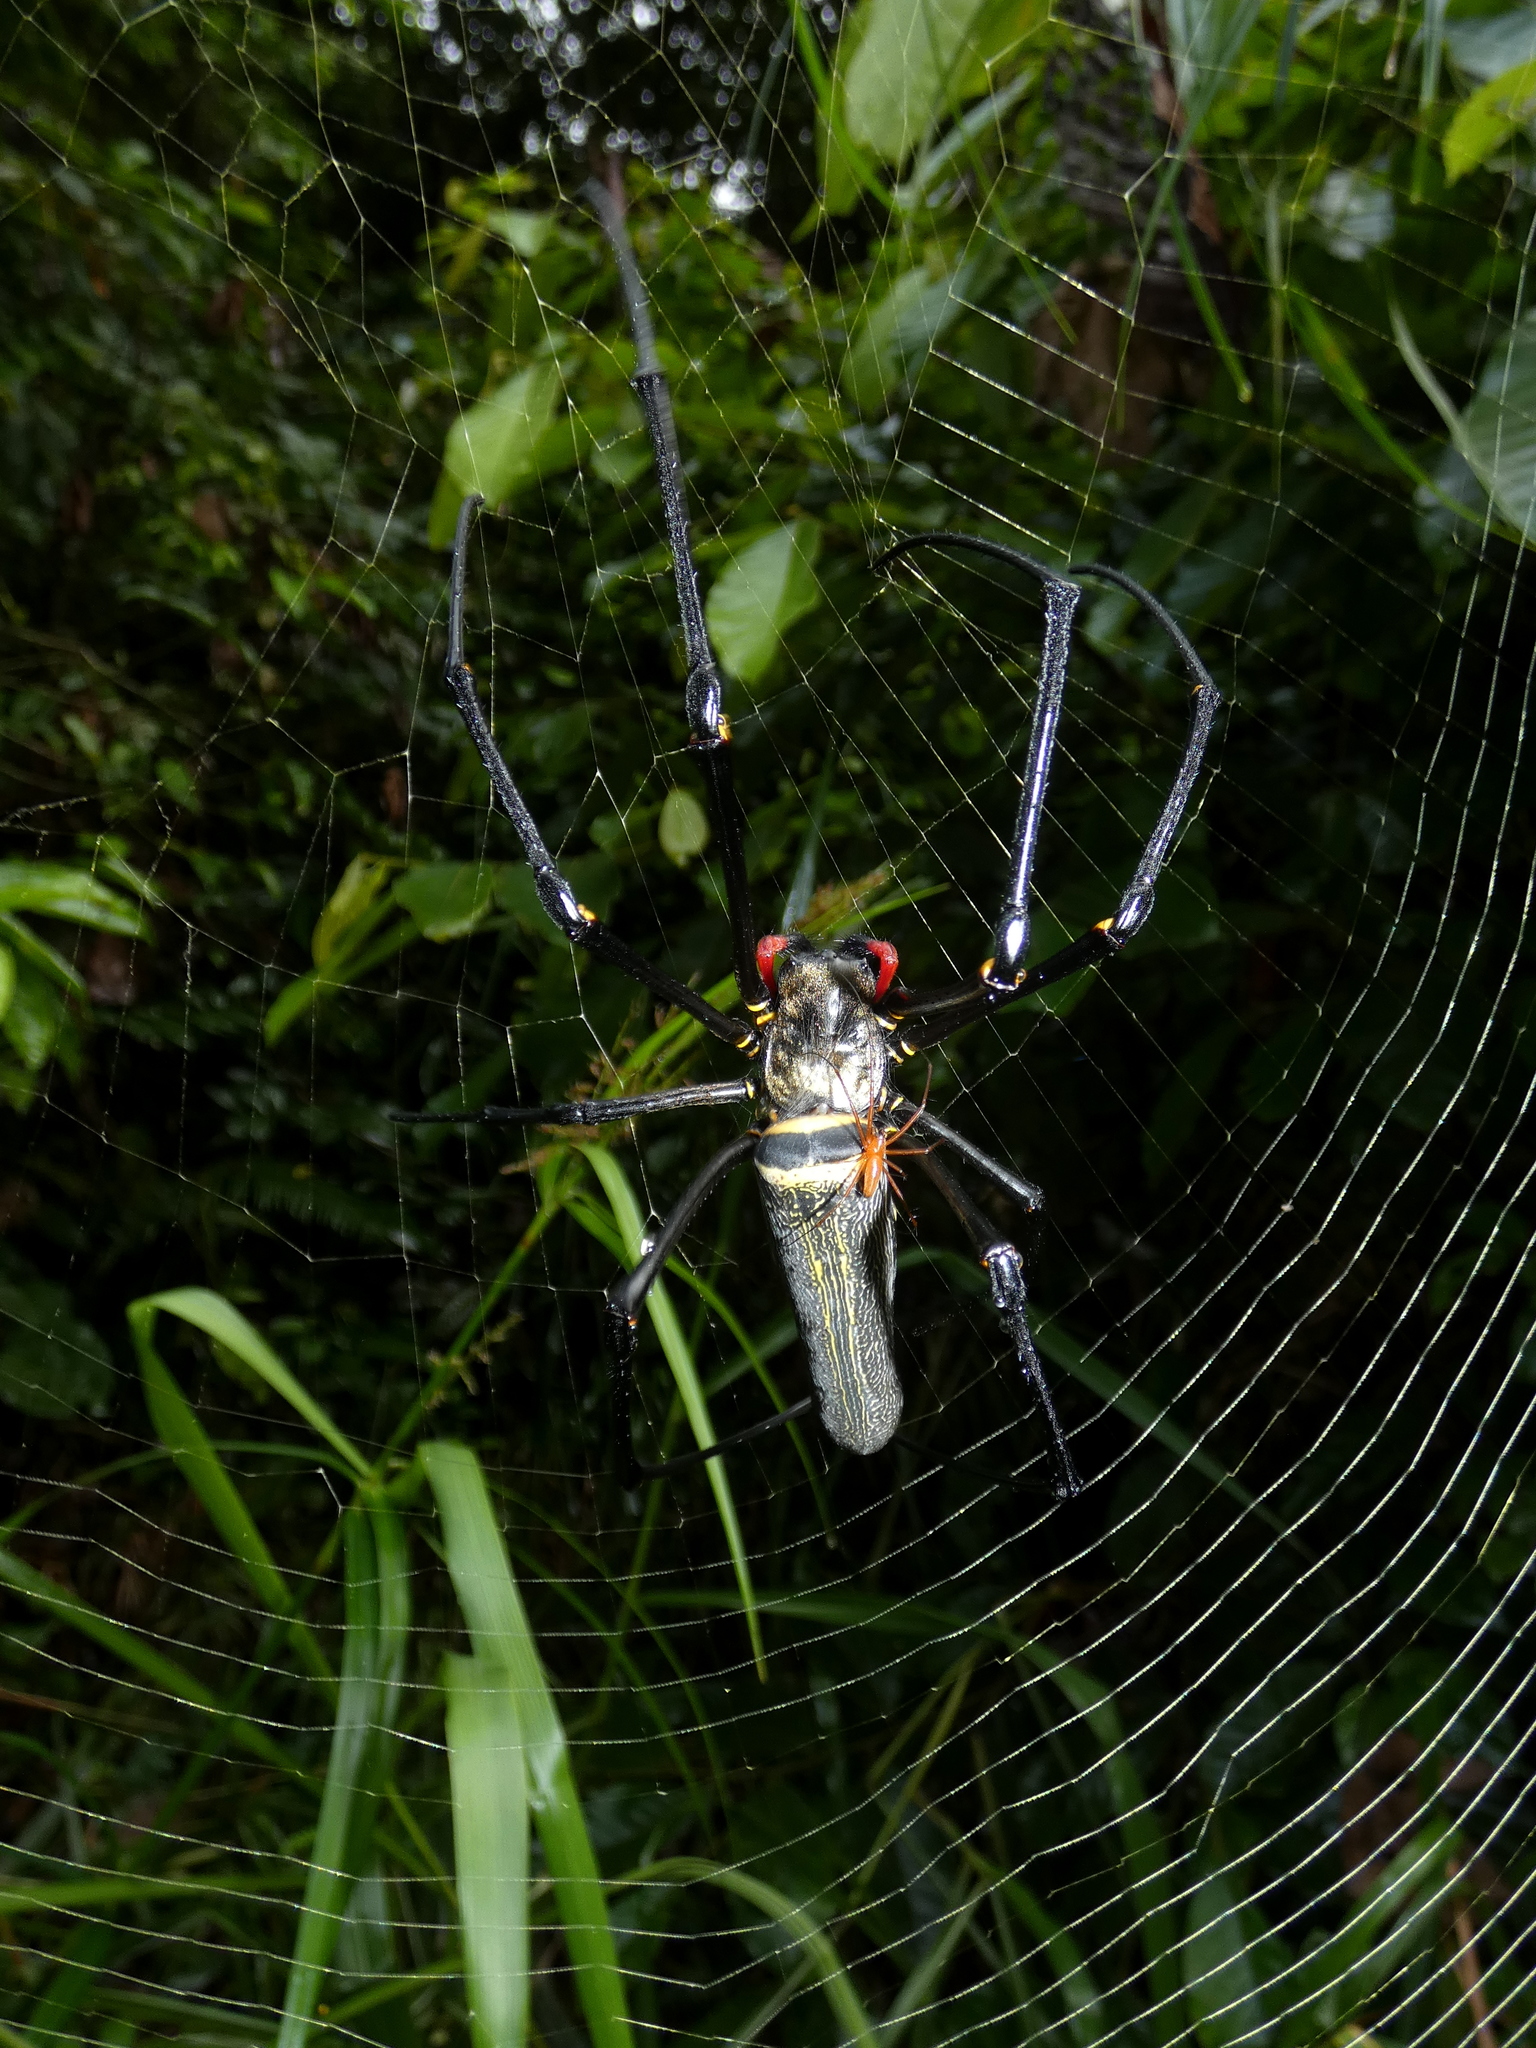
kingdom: Animalia
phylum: Arthropoda
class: Arachnida
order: Araneae
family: Araneidae
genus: Nephila
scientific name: Nephila pilipes
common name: Giant golden orb weaver
